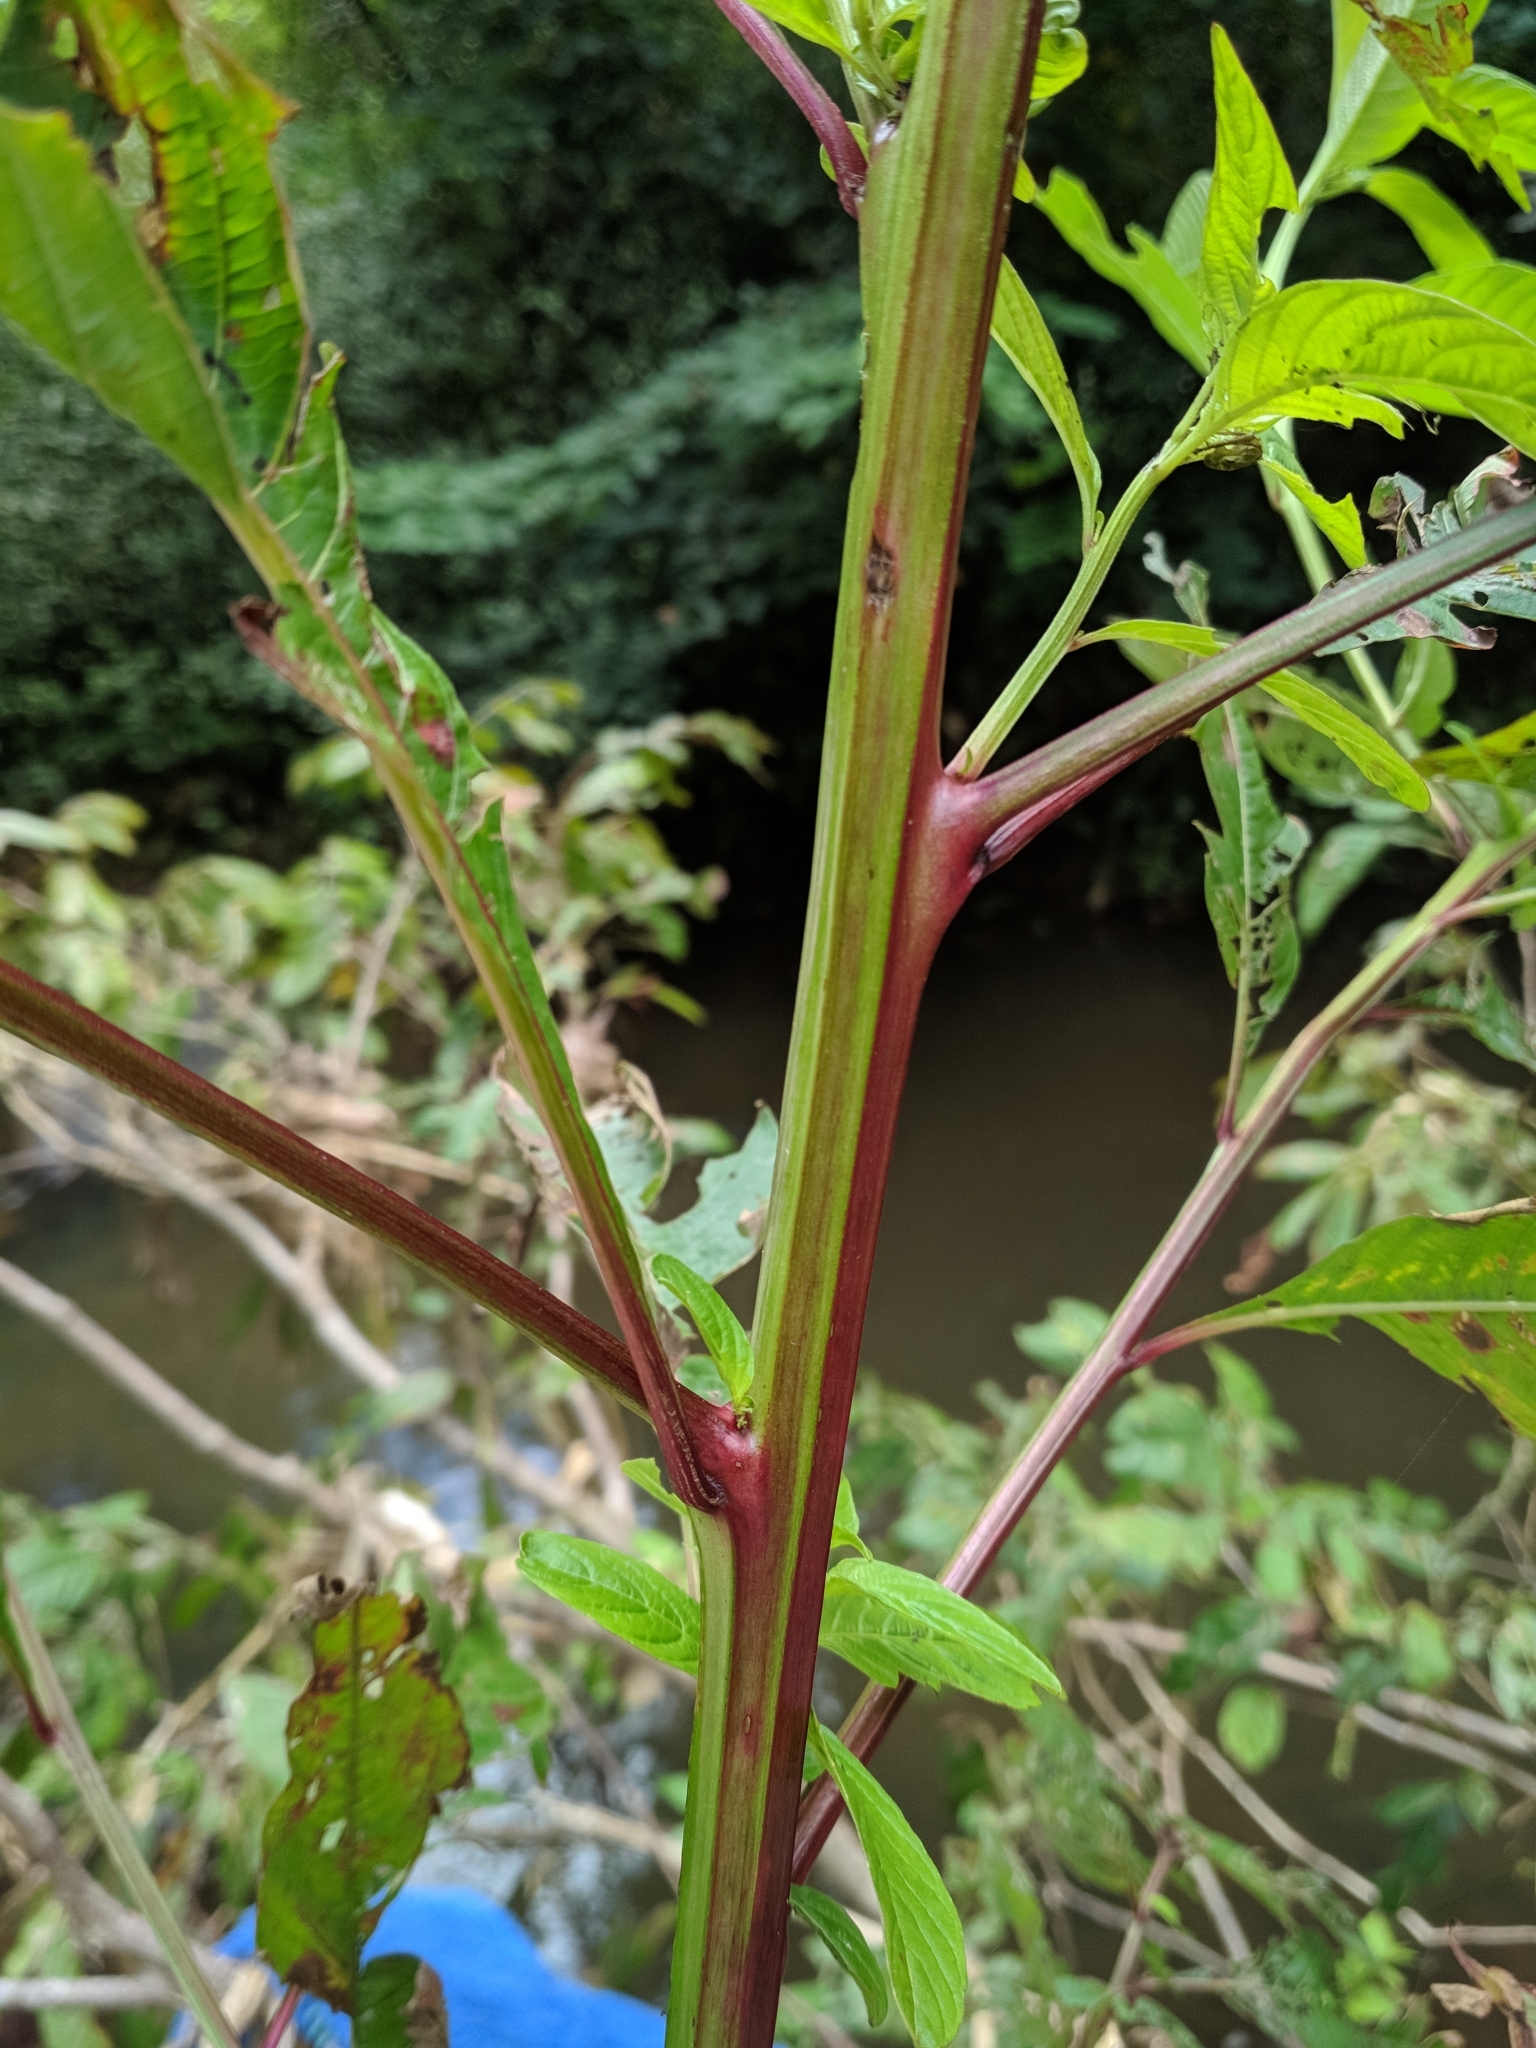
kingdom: Plantae
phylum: Tracheophyta
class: Magnoliopsida
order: Myrtales
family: Onagraceae
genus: Ludwigia
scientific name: Ludwigia erecta
